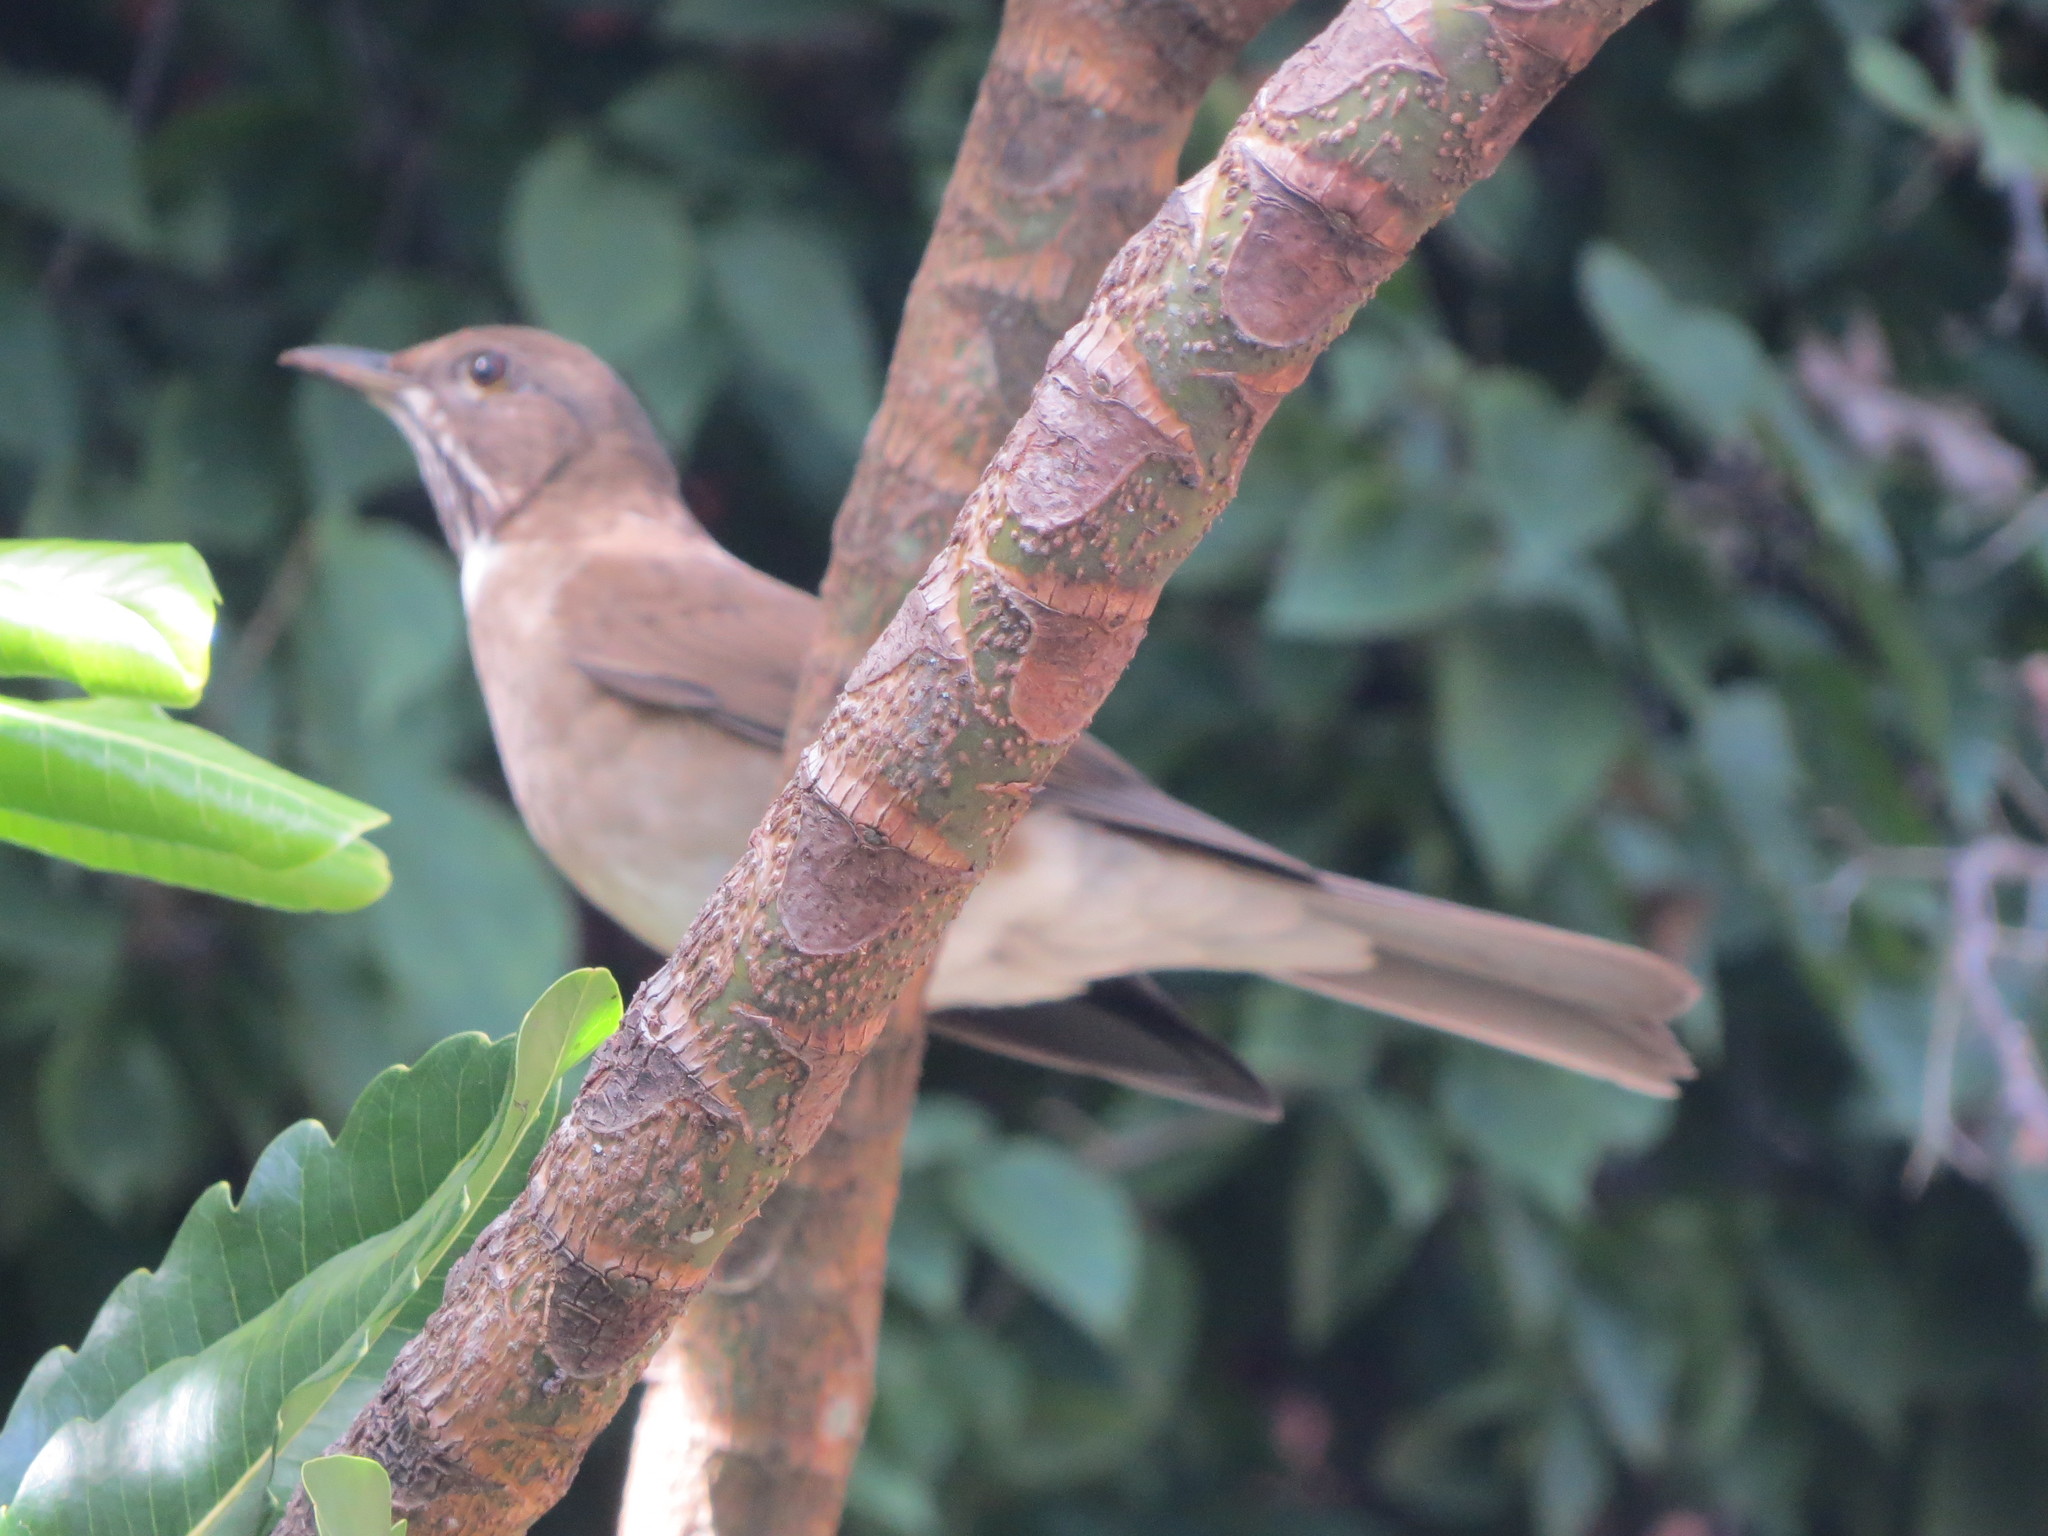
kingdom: Animalia
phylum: Chordata
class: Aves
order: Passeriformes
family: Turdidae
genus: Turdus
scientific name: Turdus assimilis
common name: White-throated thrush
